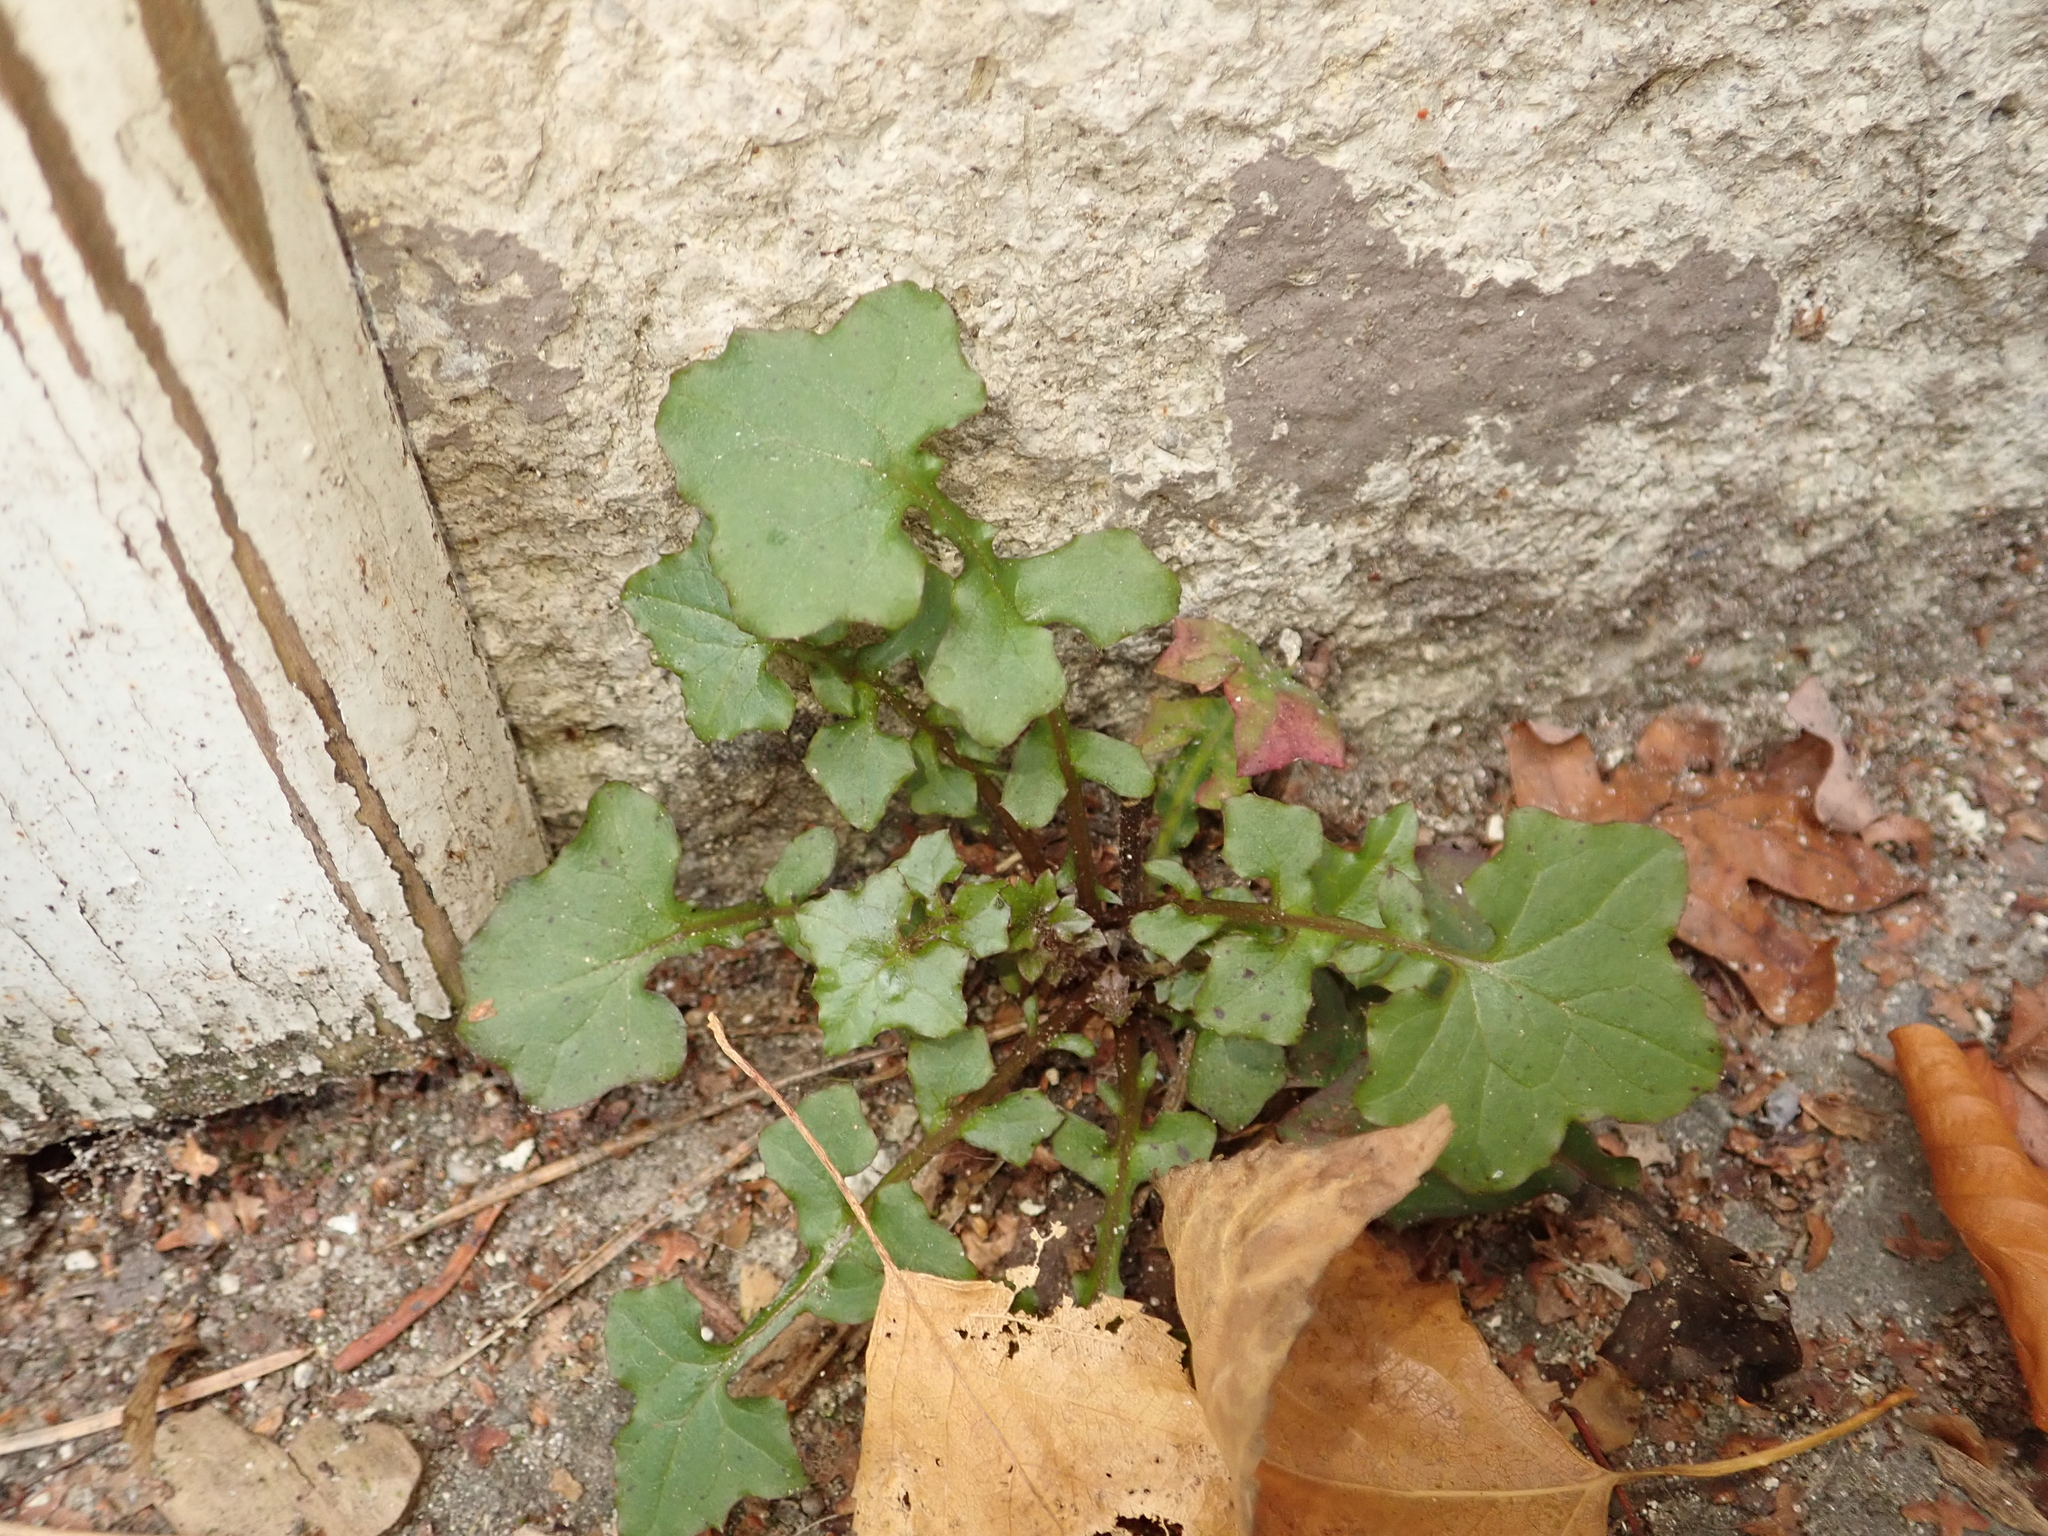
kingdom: Plantae
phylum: Tracheophyta
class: Magnoliopsida
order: Asterales
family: Asteraceae
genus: Mycelis
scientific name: Mycelis muralis
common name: Wall lettuce
